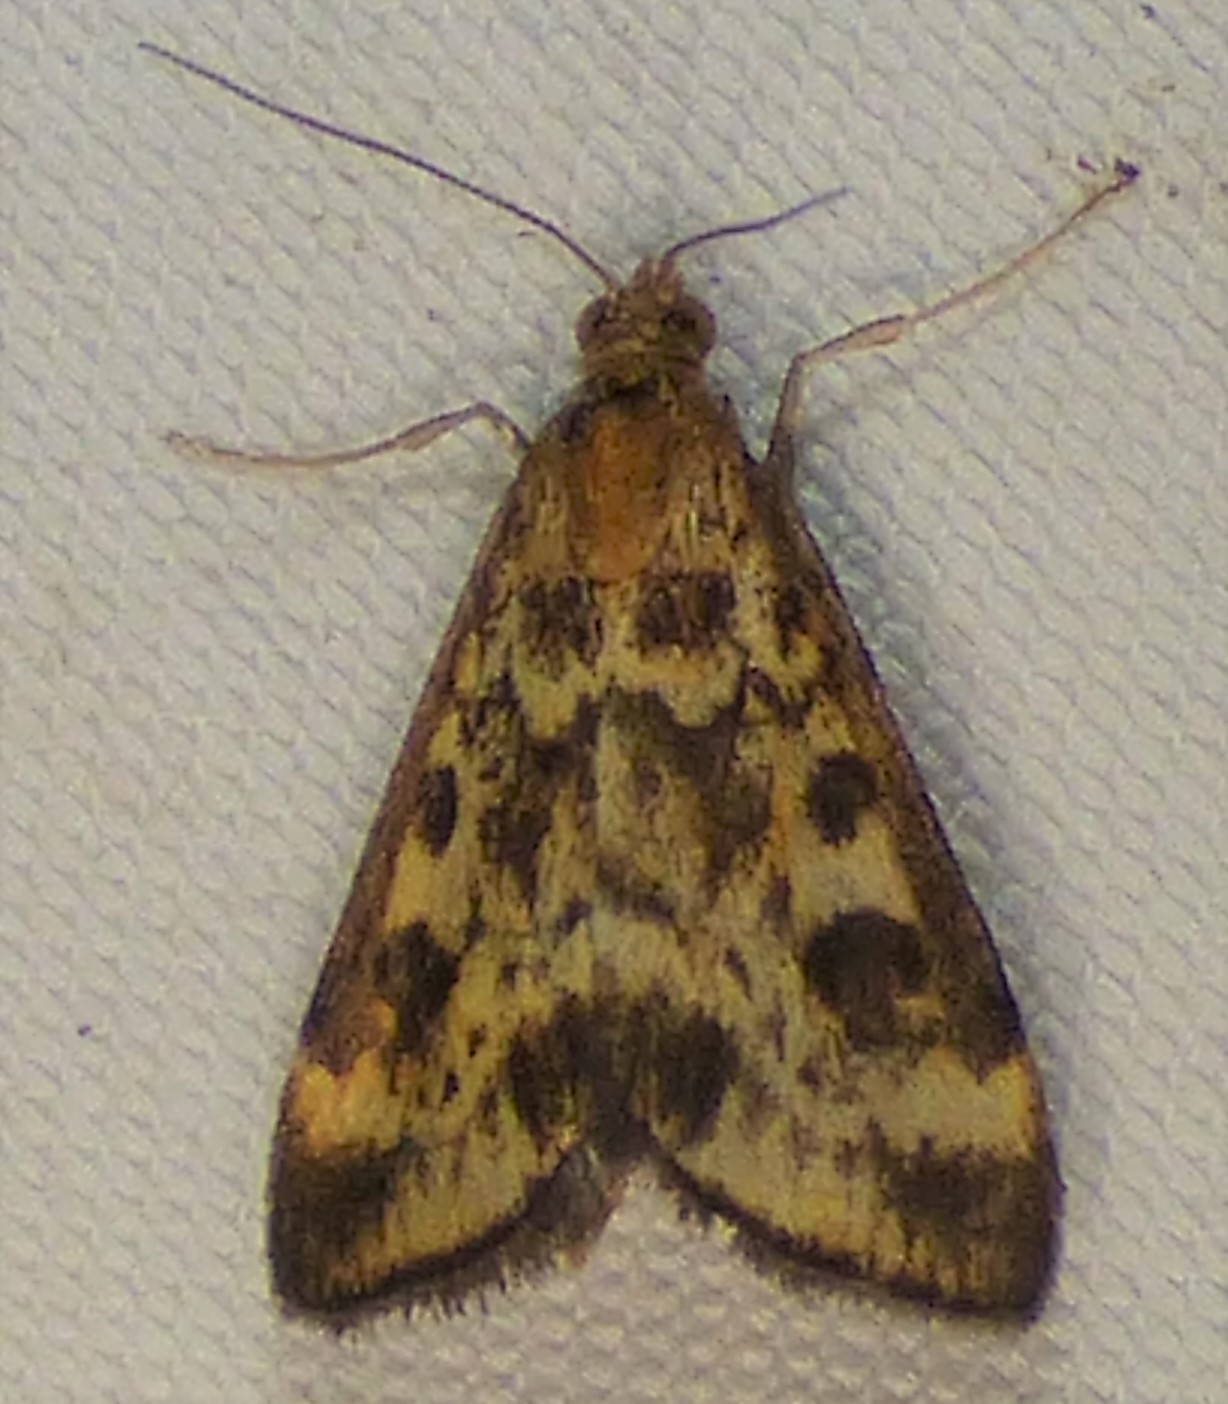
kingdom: Animalia
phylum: Arthropoda
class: Insecta
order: Lepidoptera
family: Crambidae
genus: Pyrausta
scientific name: Pyrausta subsequalis
